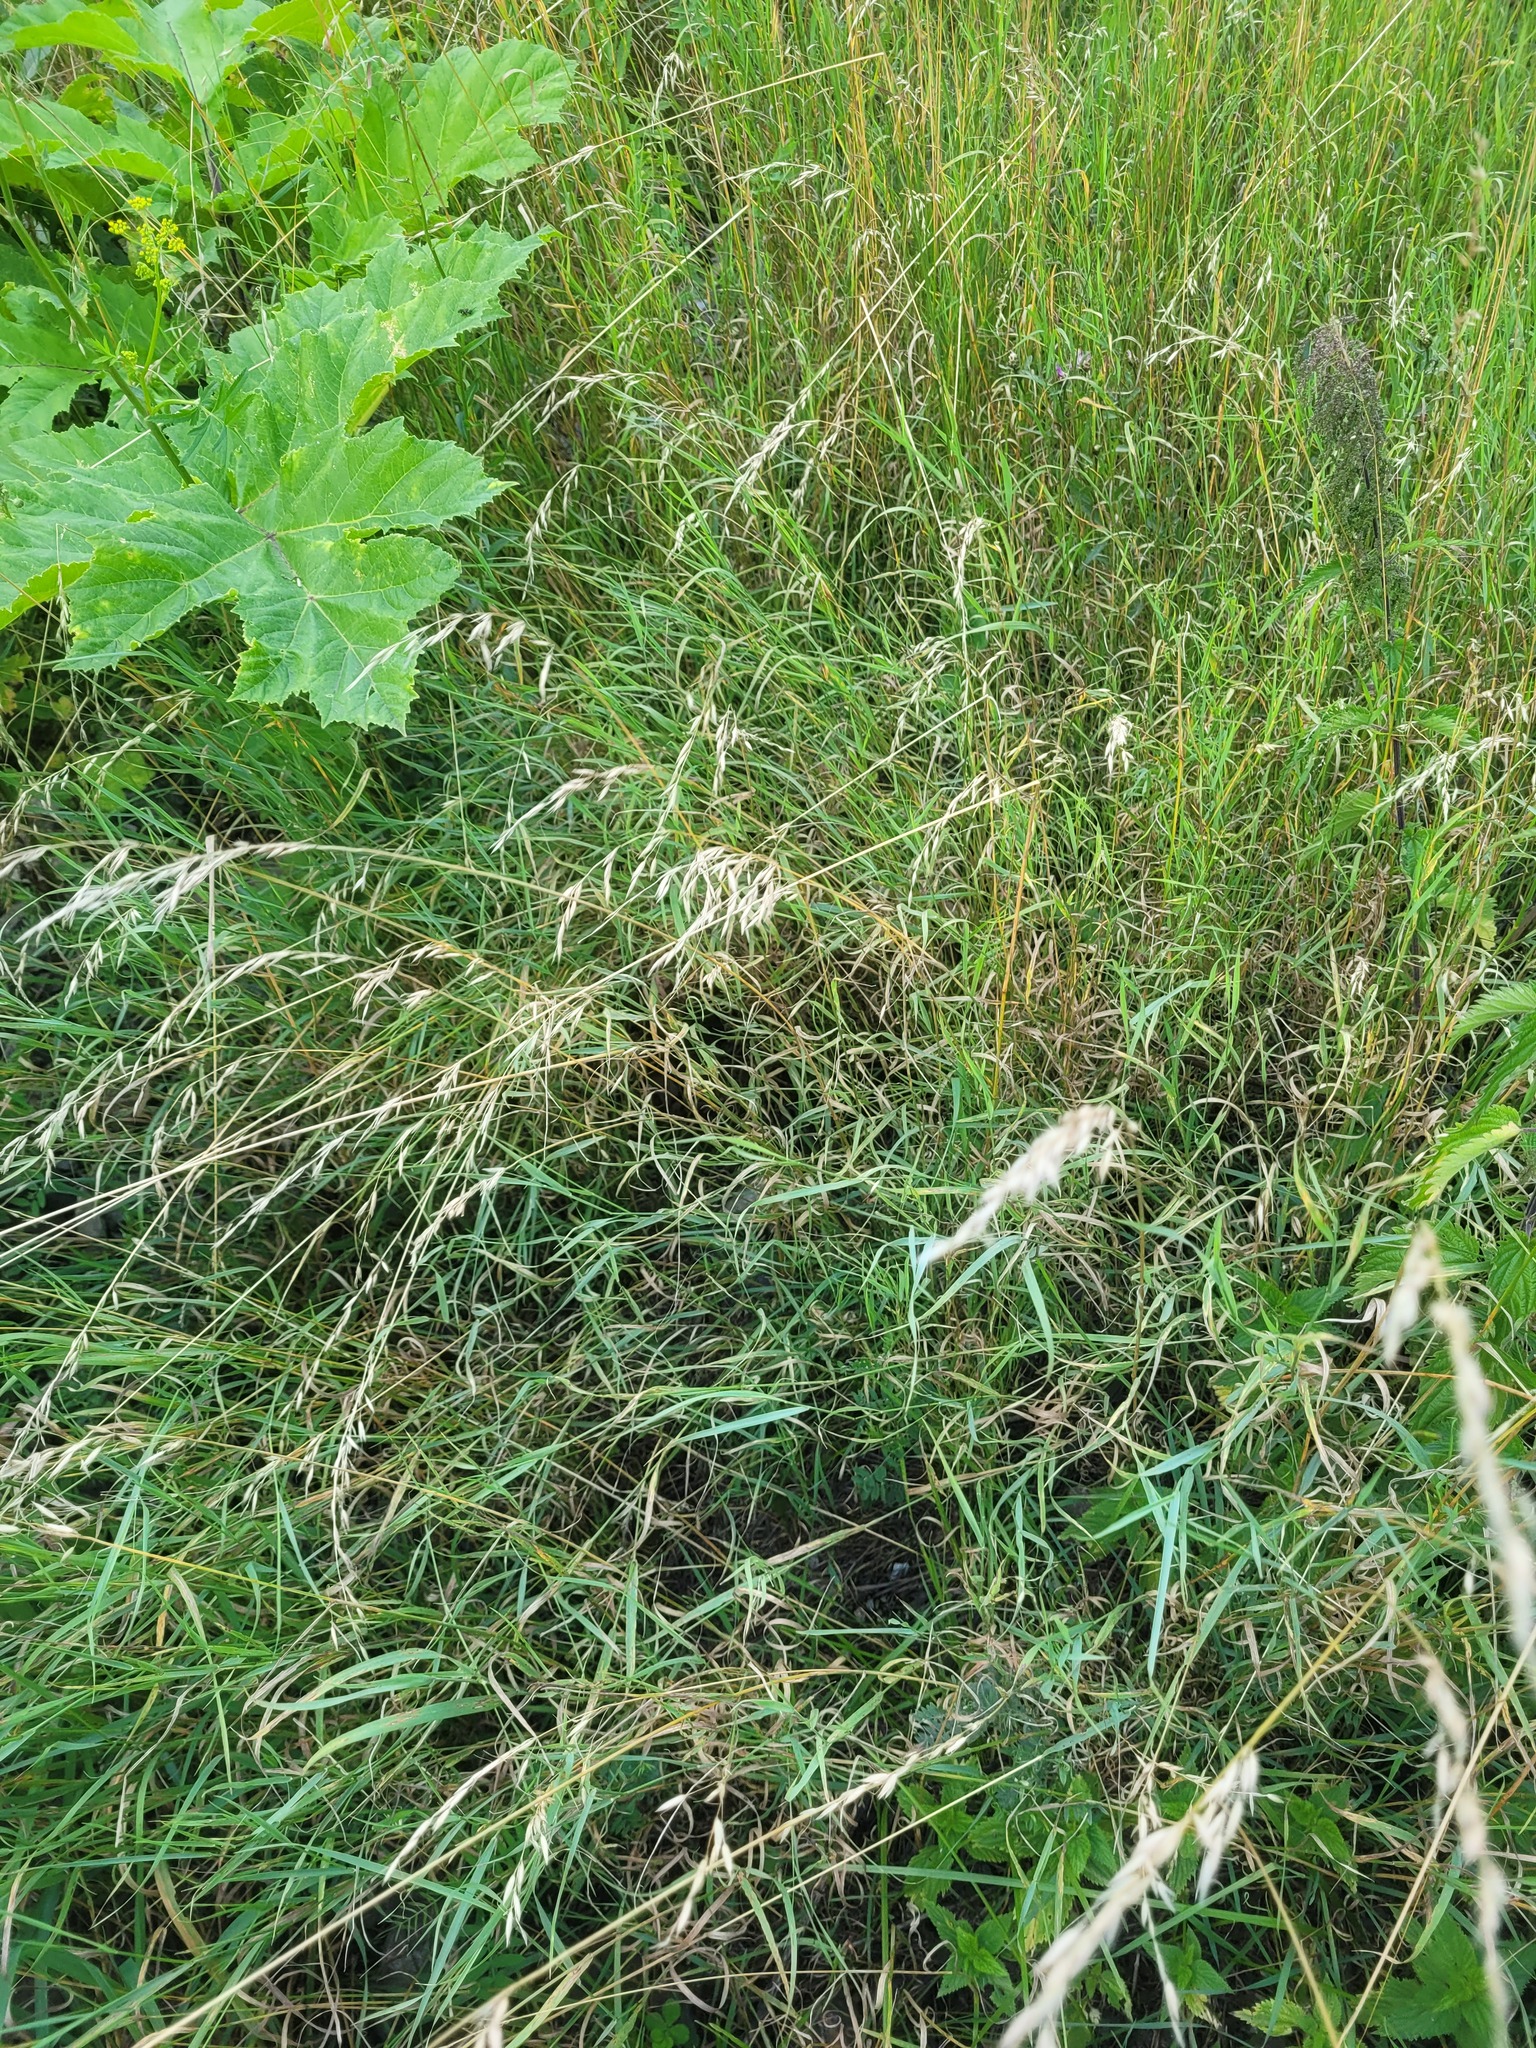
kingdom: Plantae
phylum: Tracheophyta
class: Liliopsida
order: Poales
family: Poaceae
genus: Arrhenatherum
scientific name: Arrhenatherum elatius
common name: Tall oatgrass
